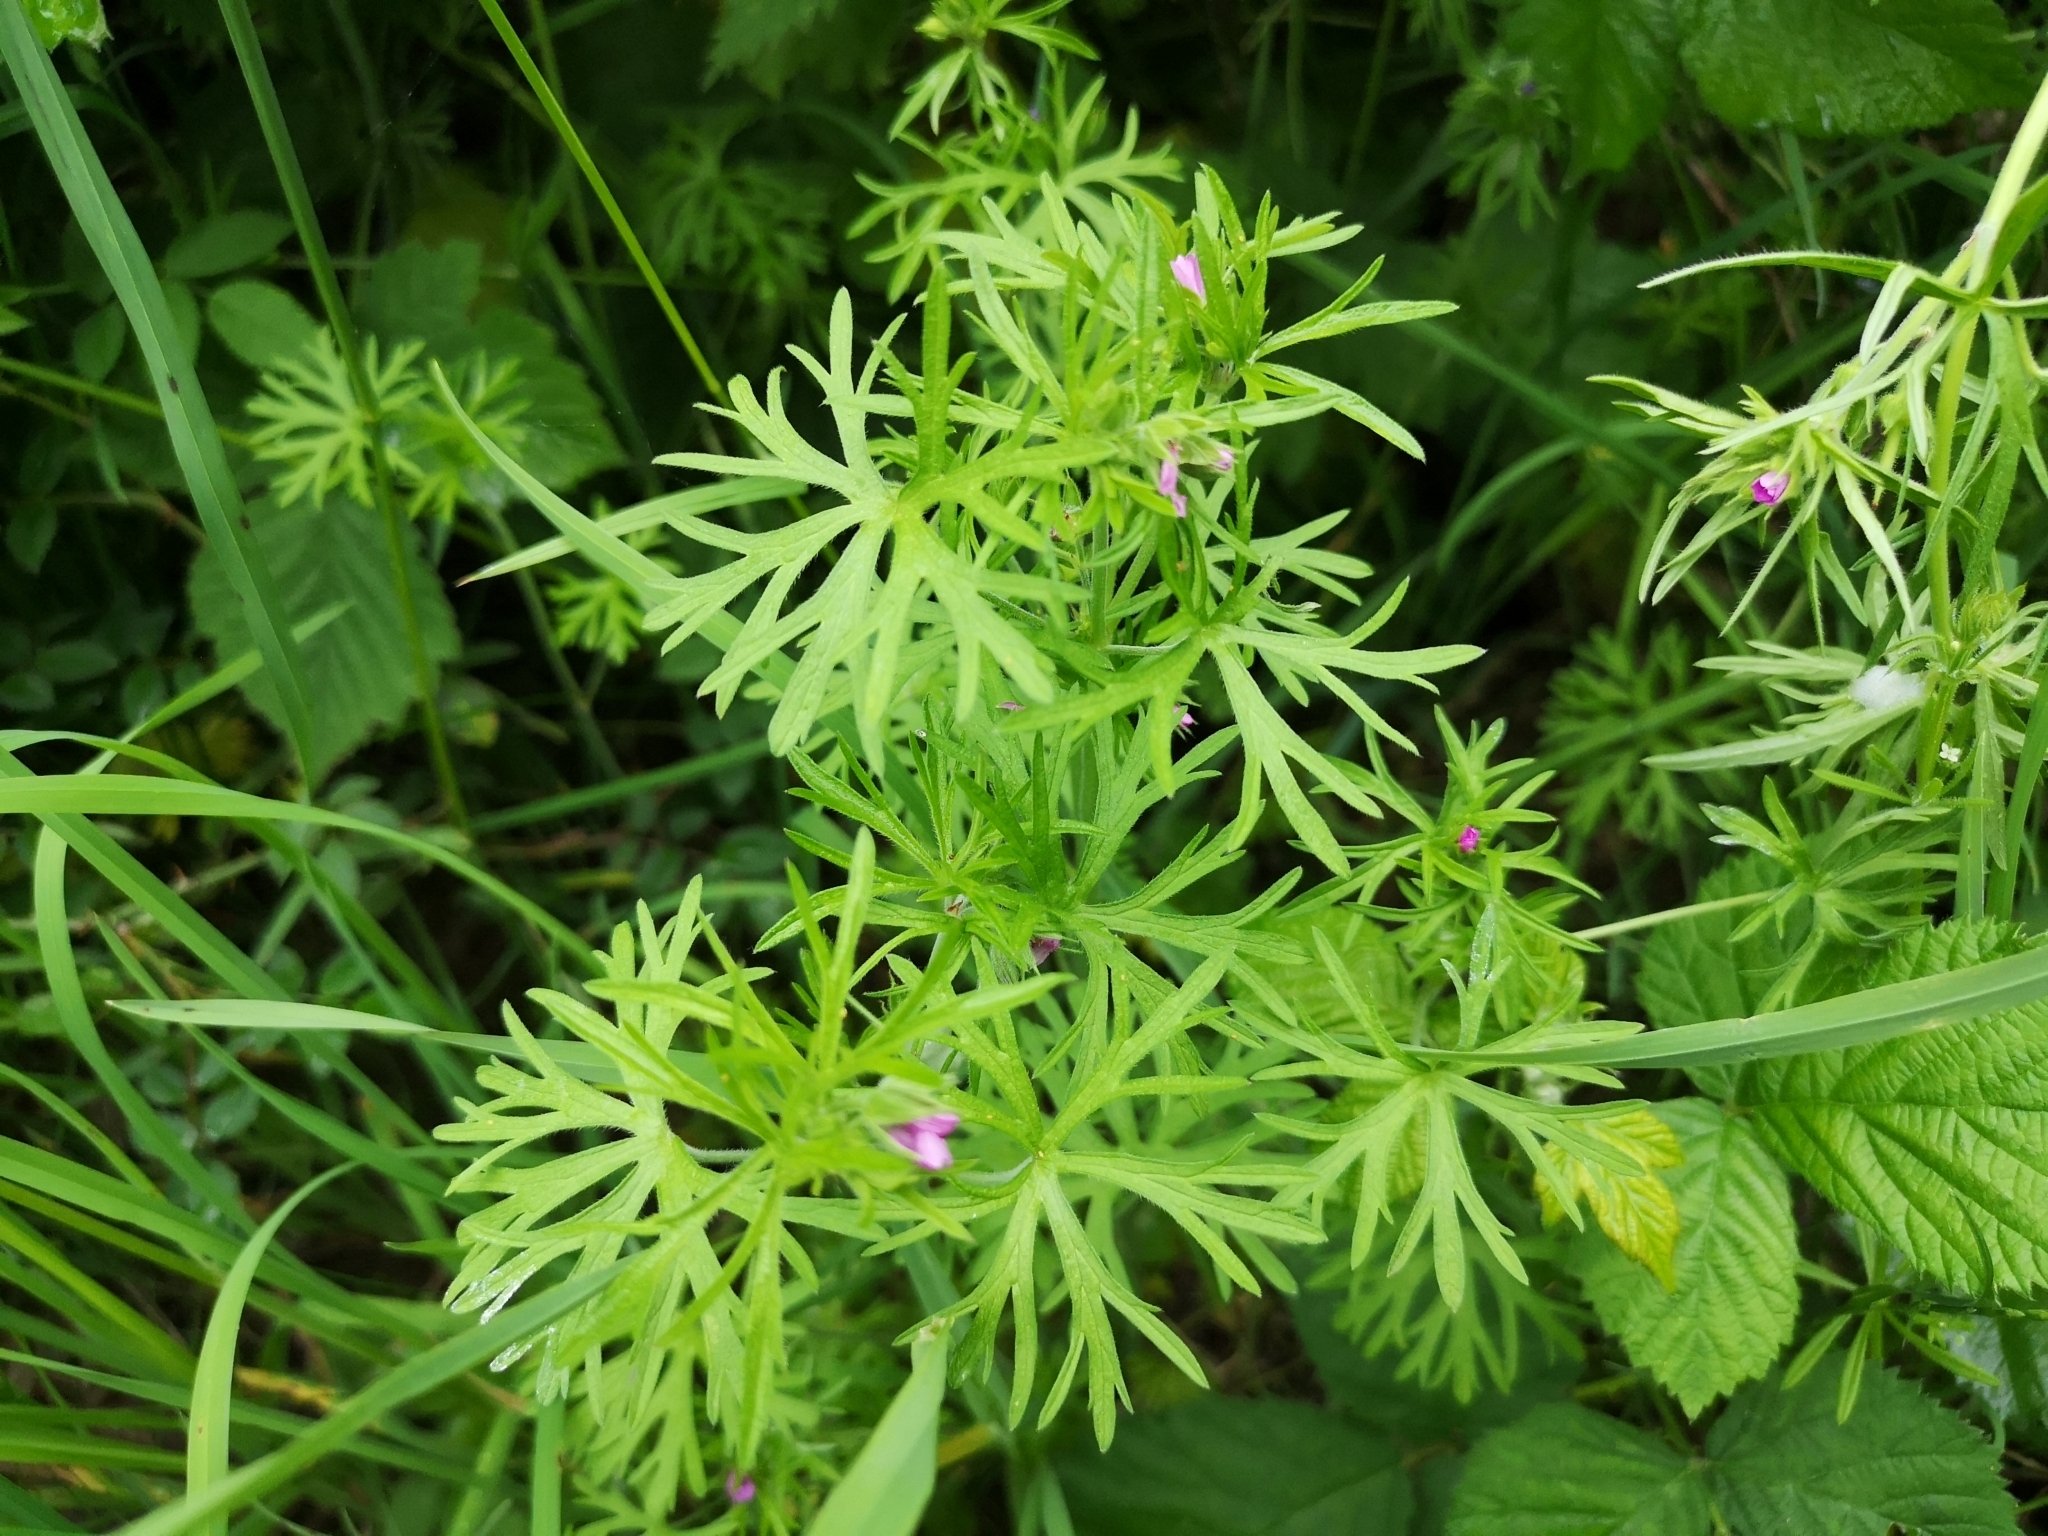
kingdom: Plantae
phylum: Tracheophyta
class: Magnoliopsida
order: Geraniales
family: Geraniaceae
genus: Geranium
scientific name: Geranium dissectum
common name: Cut-leaved crane's-bill
